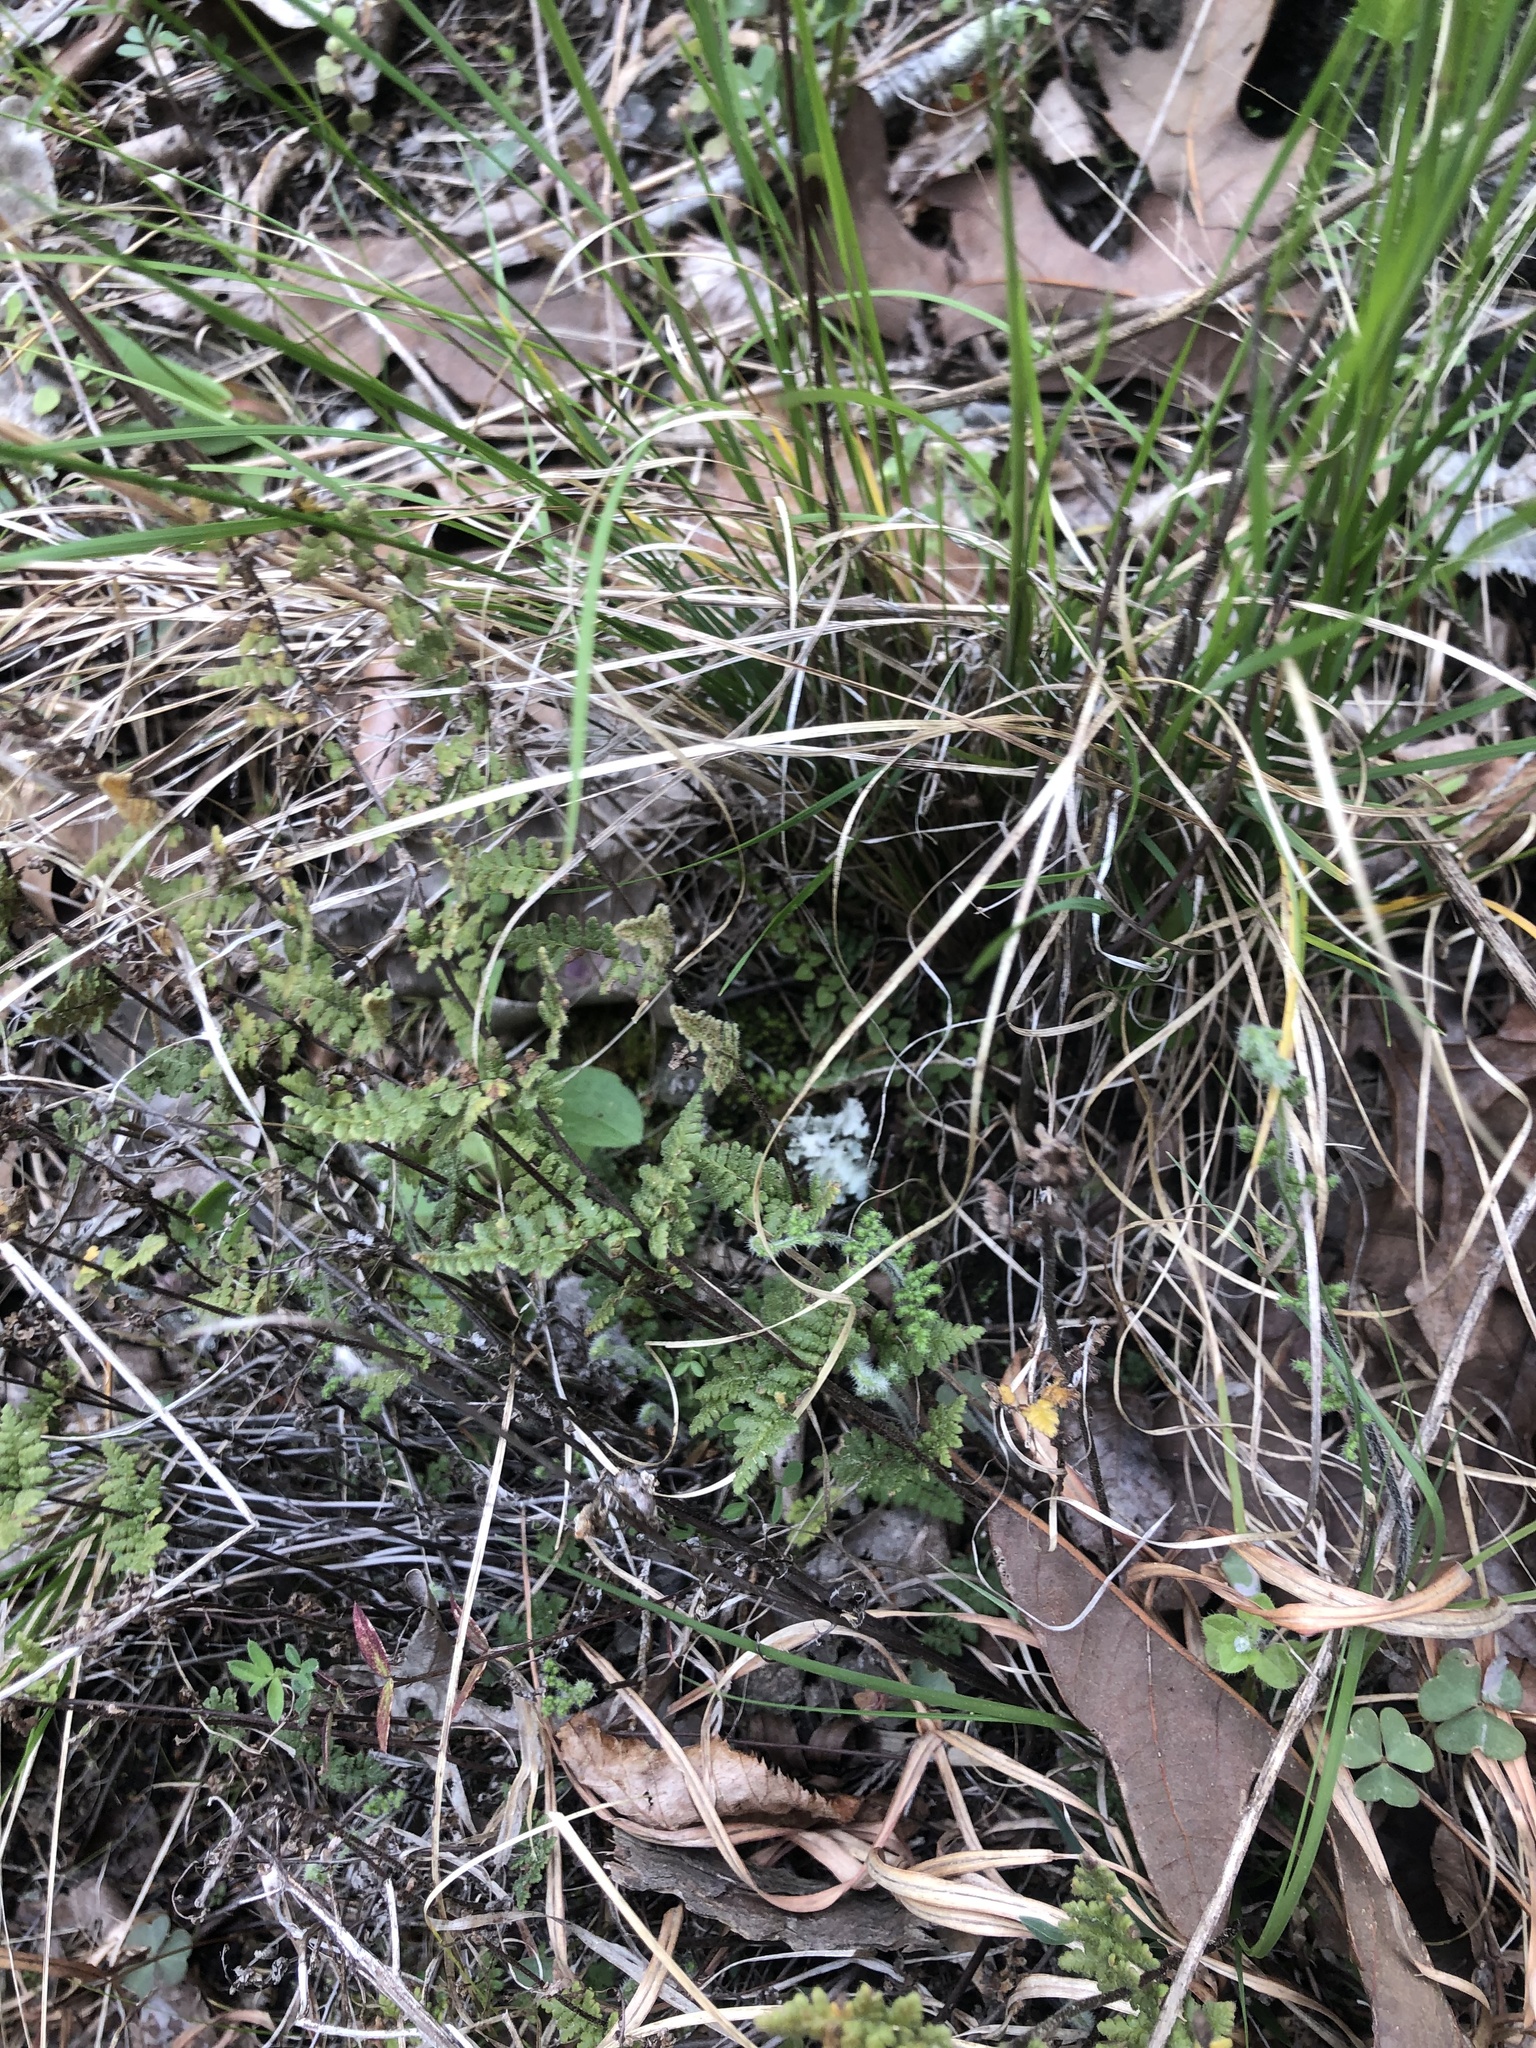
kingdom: Plantae
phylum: Tracheophyta
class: Polypodiopsida
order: Polypodiales
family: Pteridaceae
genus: Myriopteris
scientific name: Myriopteris lanosa
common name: Hairy lip fern
